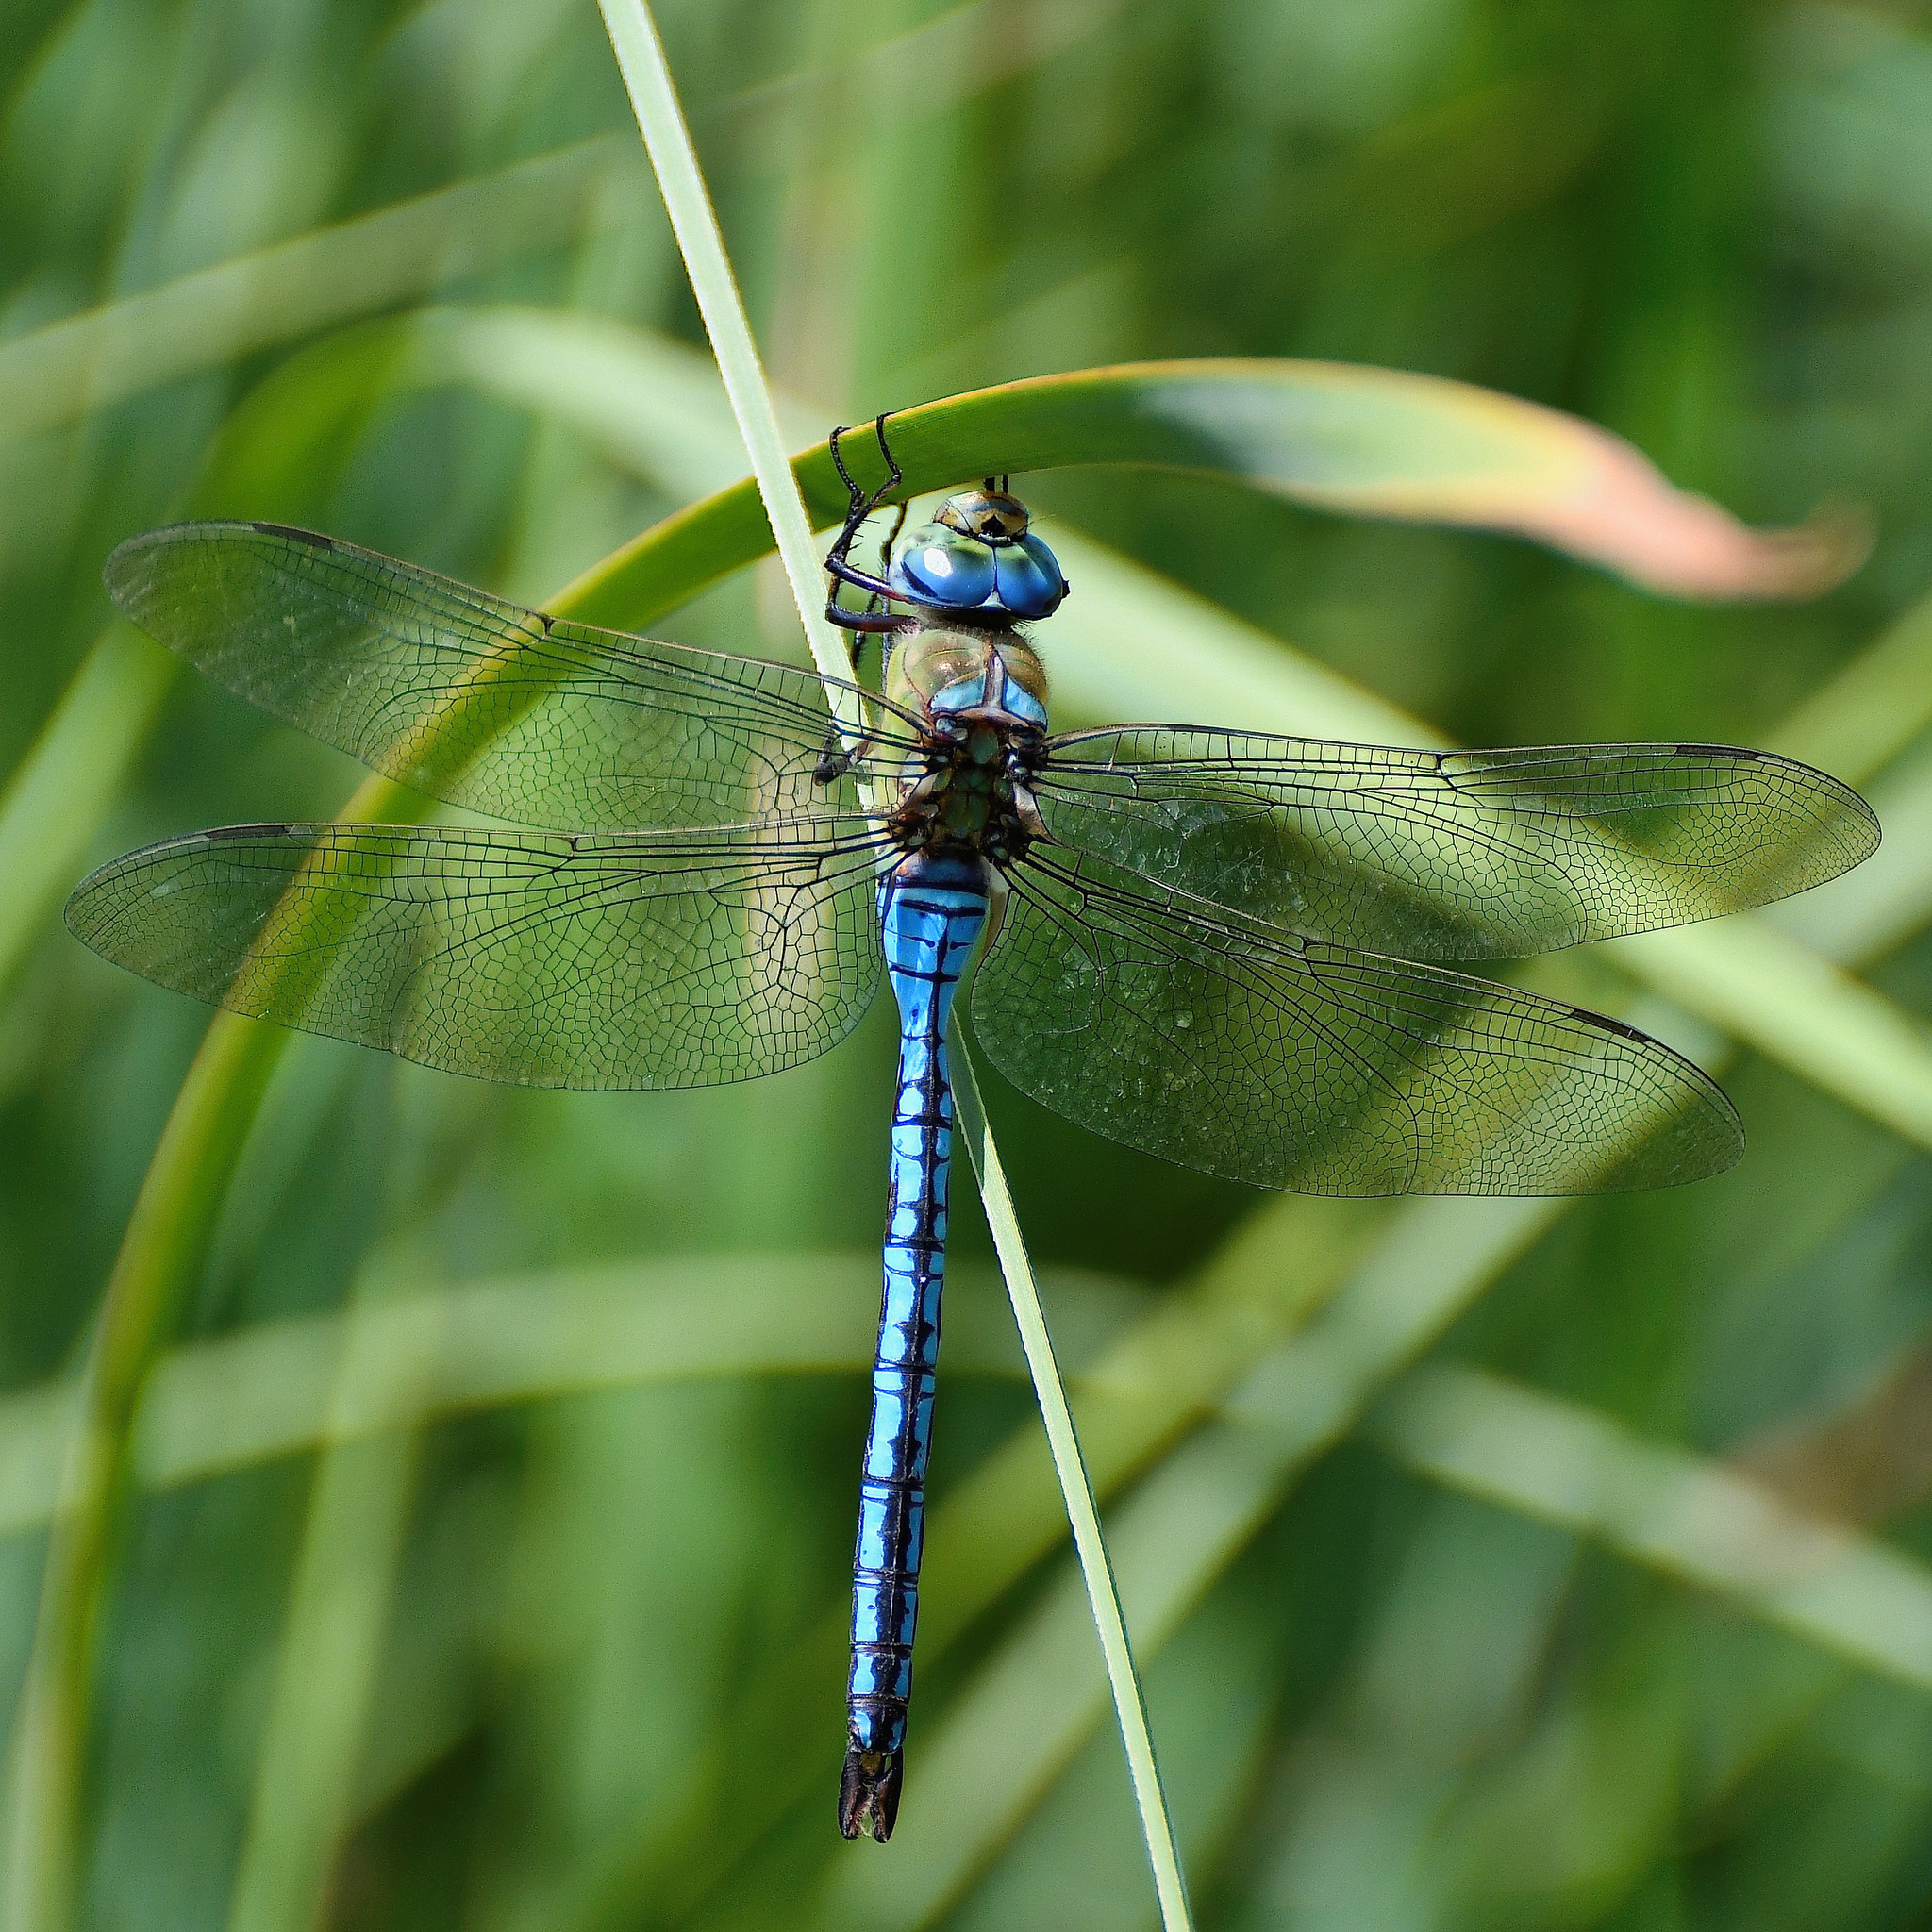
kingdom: Animalia
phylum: Arthropoda
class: Insecta
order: Odonata
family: Aeshnidae
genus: Anax
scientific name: Anax imperator
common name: Emperor dragonfly
